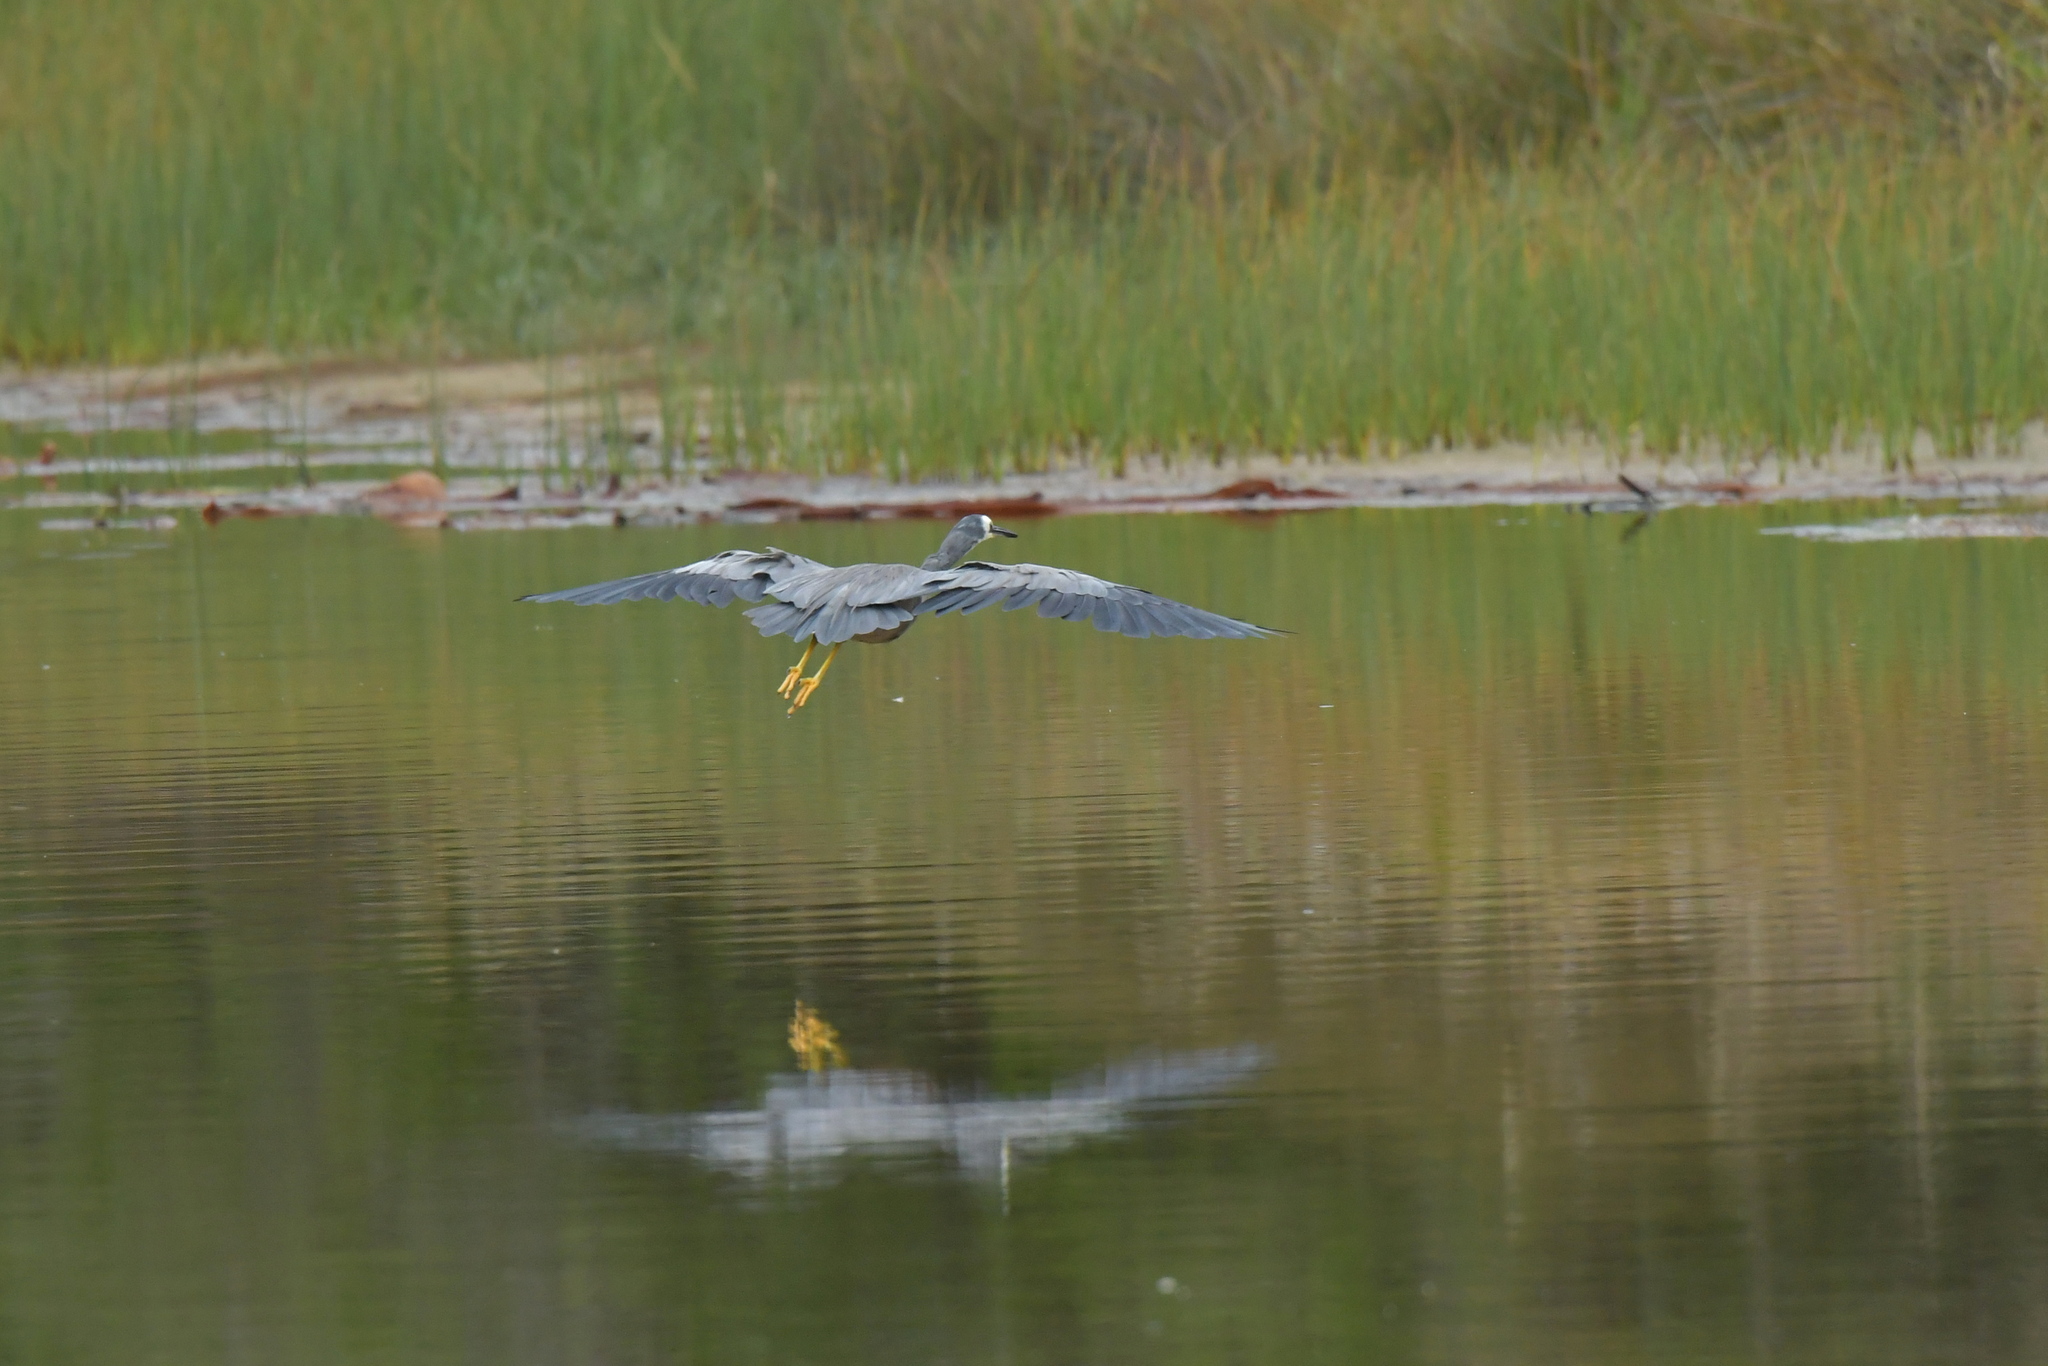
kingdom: Animalia
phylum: Chordata
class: Aves
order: Pelecaniformes
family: Ardeidae
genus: Egretta
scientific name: Egretta novaehollandiae
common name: White-faced heron
